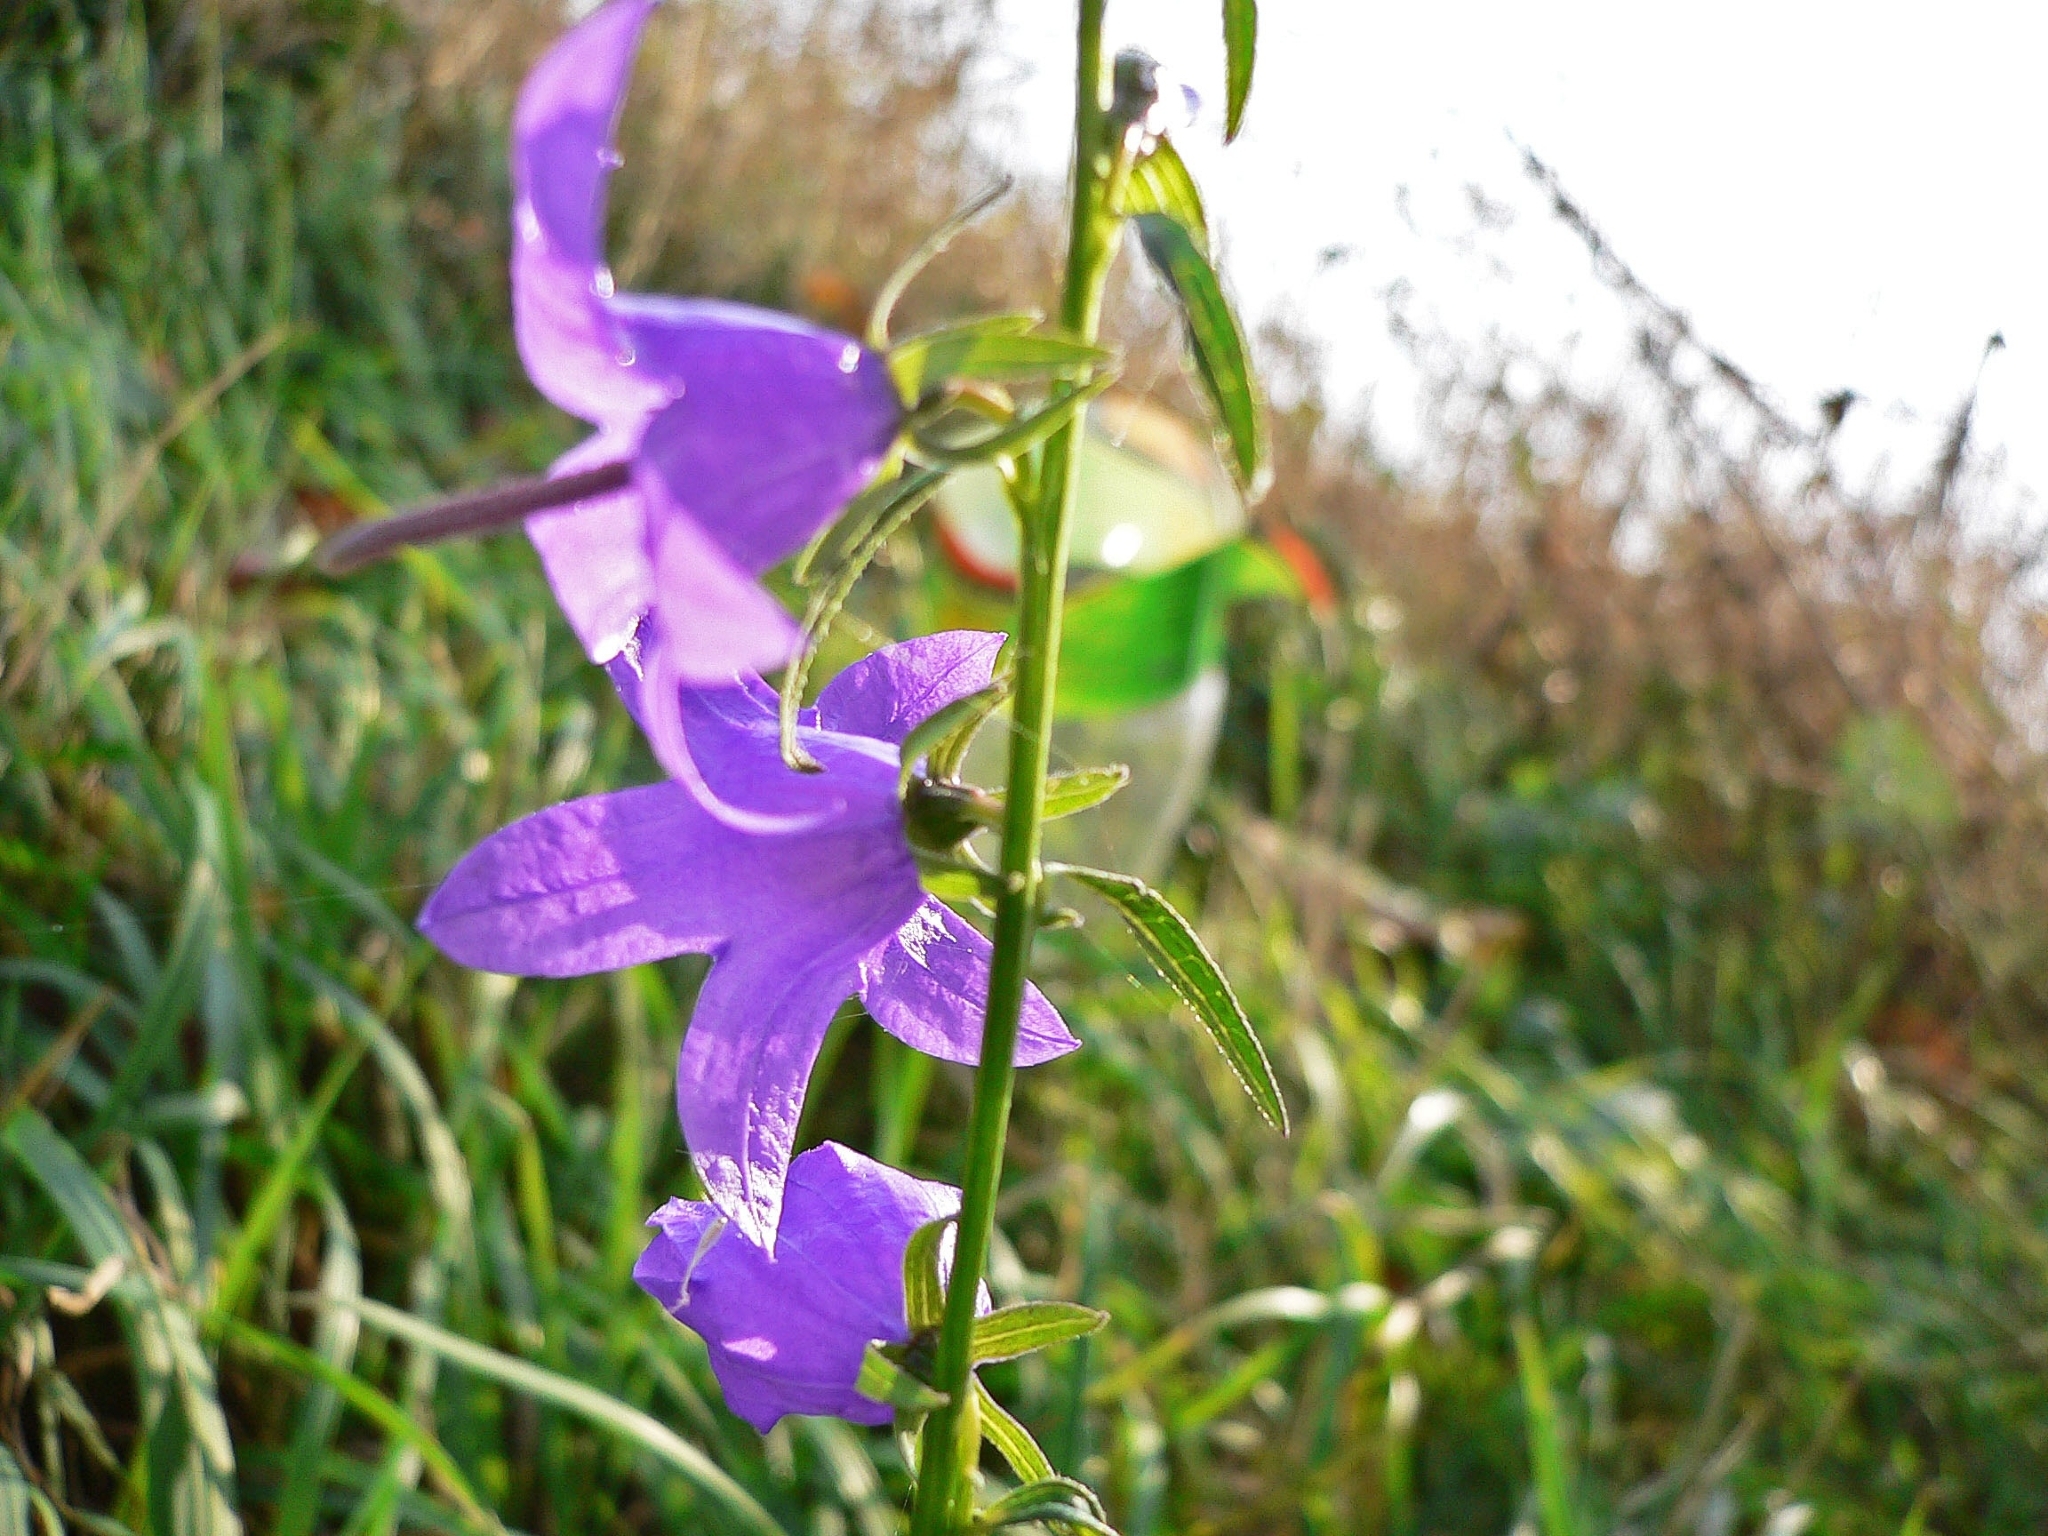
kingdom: Plantae
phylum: Tracheophyta
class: Magnoliopsida
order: Asterales
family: Campanulaceae
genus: Campanula
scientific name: Campanula rapunculoides
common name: Creeping bellflower
